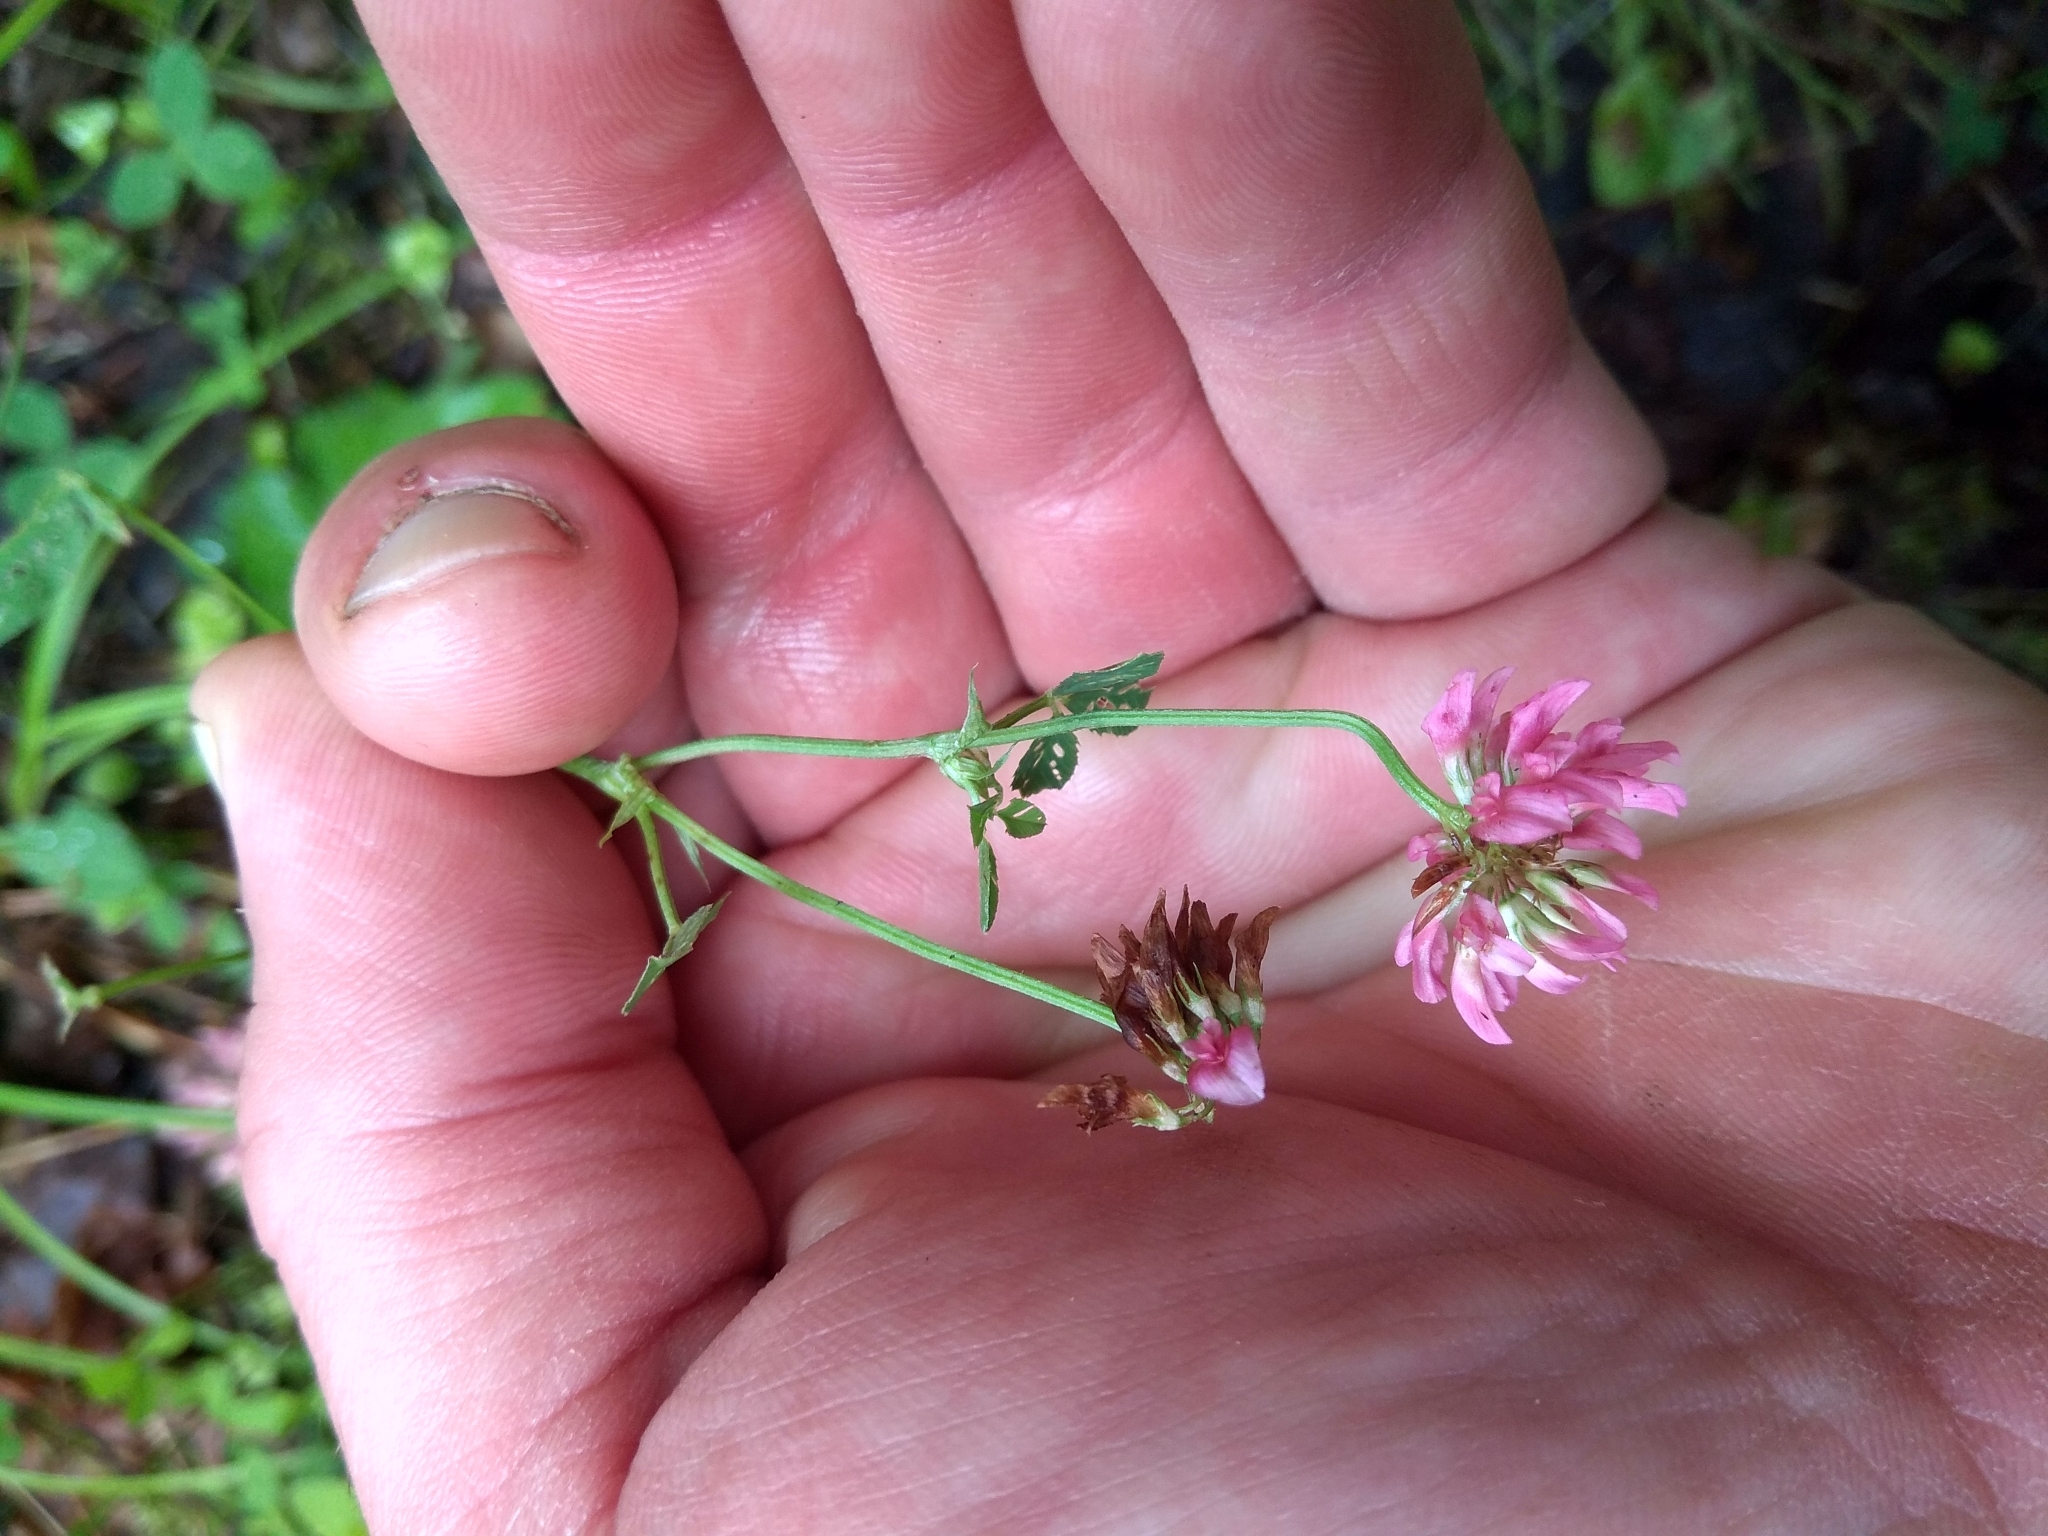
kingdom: Plantae
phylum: Tracheophyta
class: Magnoliopsida
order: Fabales
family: Fabaceae
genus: Trifolium
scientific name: Trifolium hybridum
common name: Alsike clover
